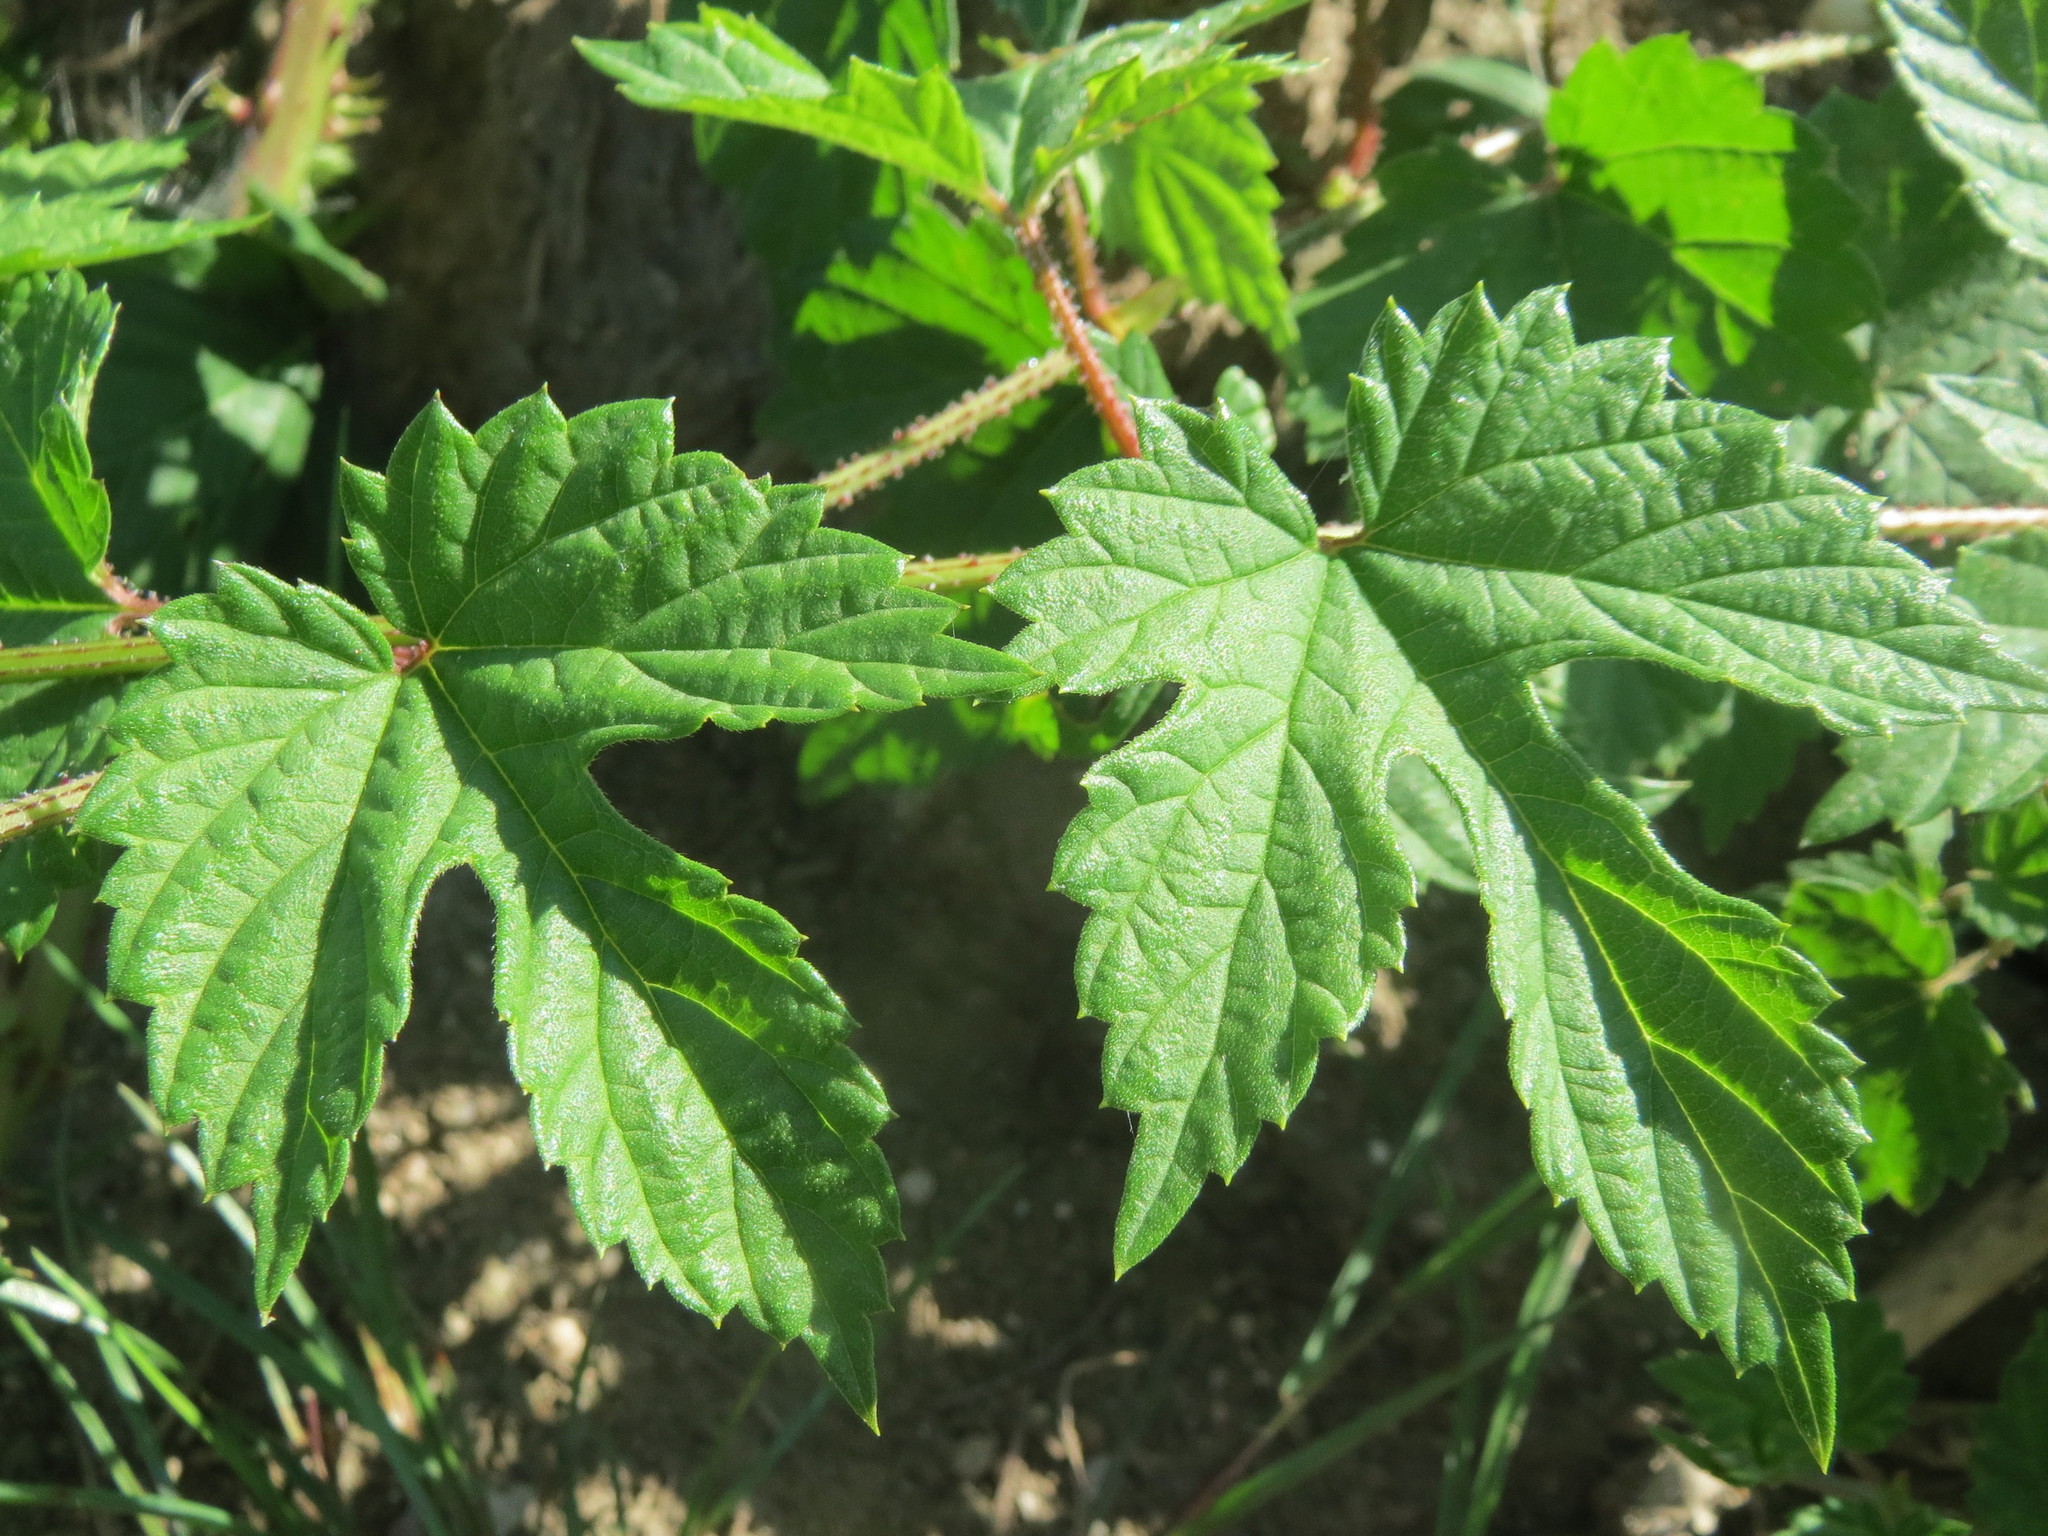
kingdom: Plantae
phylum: Tracheophyta
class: Magnoliopsida
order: Rosales
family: Cannabaceae
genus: Humulus
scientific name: Humulus lupulus
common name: Hop
